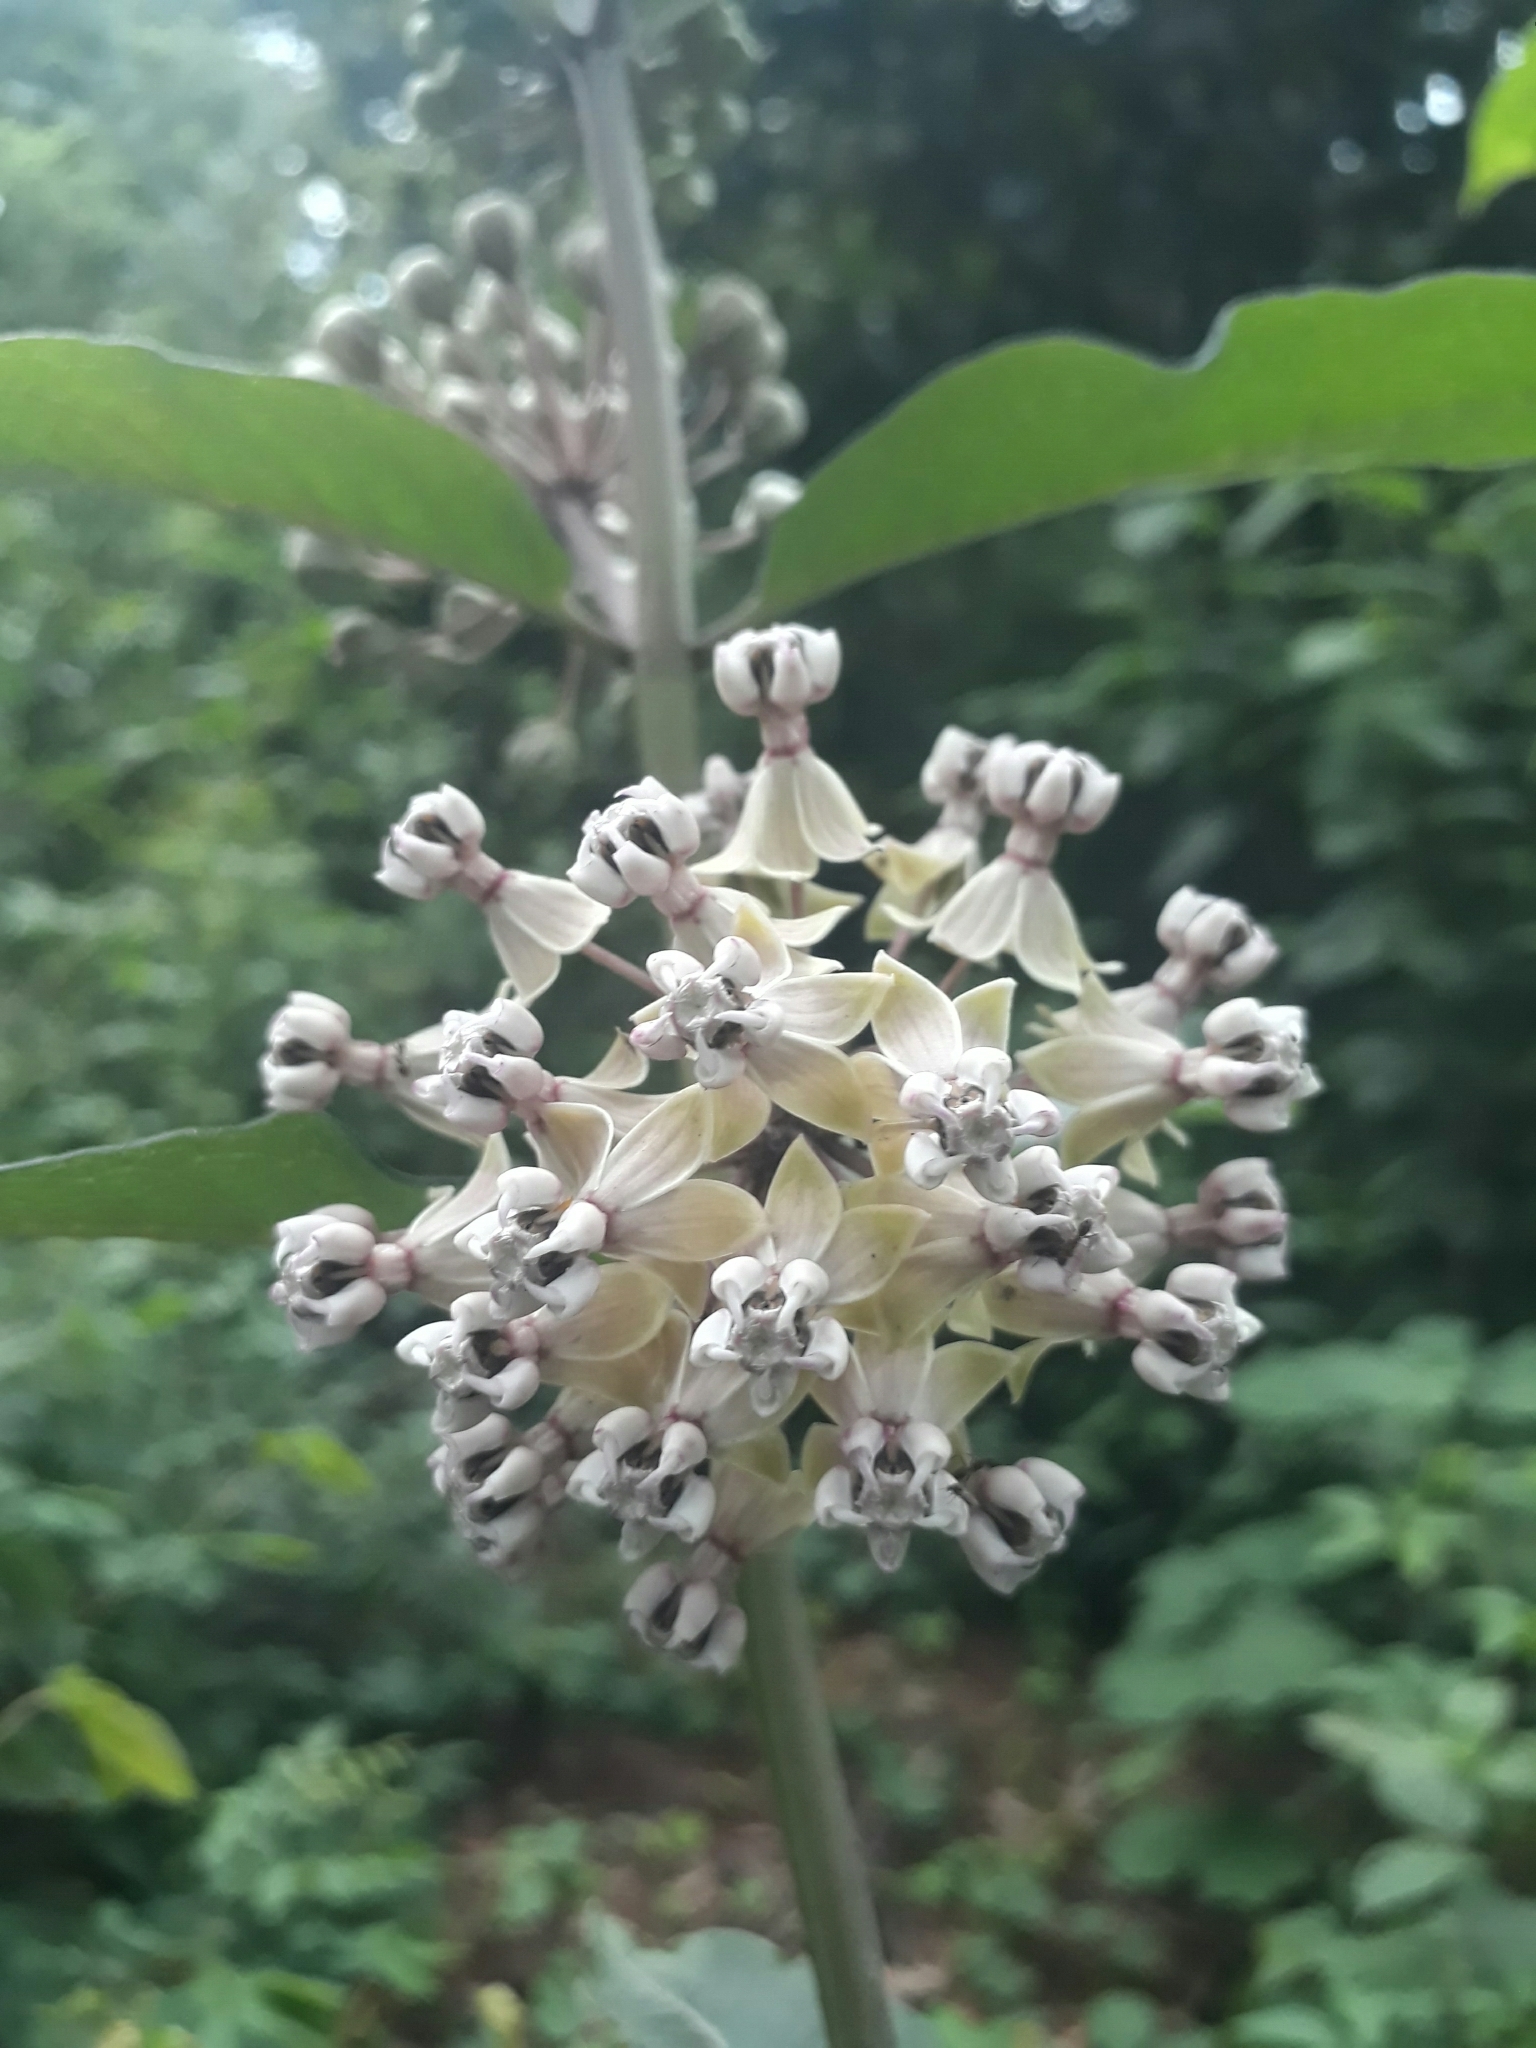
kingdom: Plantae
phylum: Tracheophyta
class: Magnoliopsida
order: Gentianales
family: Apocynaceae
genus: Asclepias
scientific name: Asclepias similis
